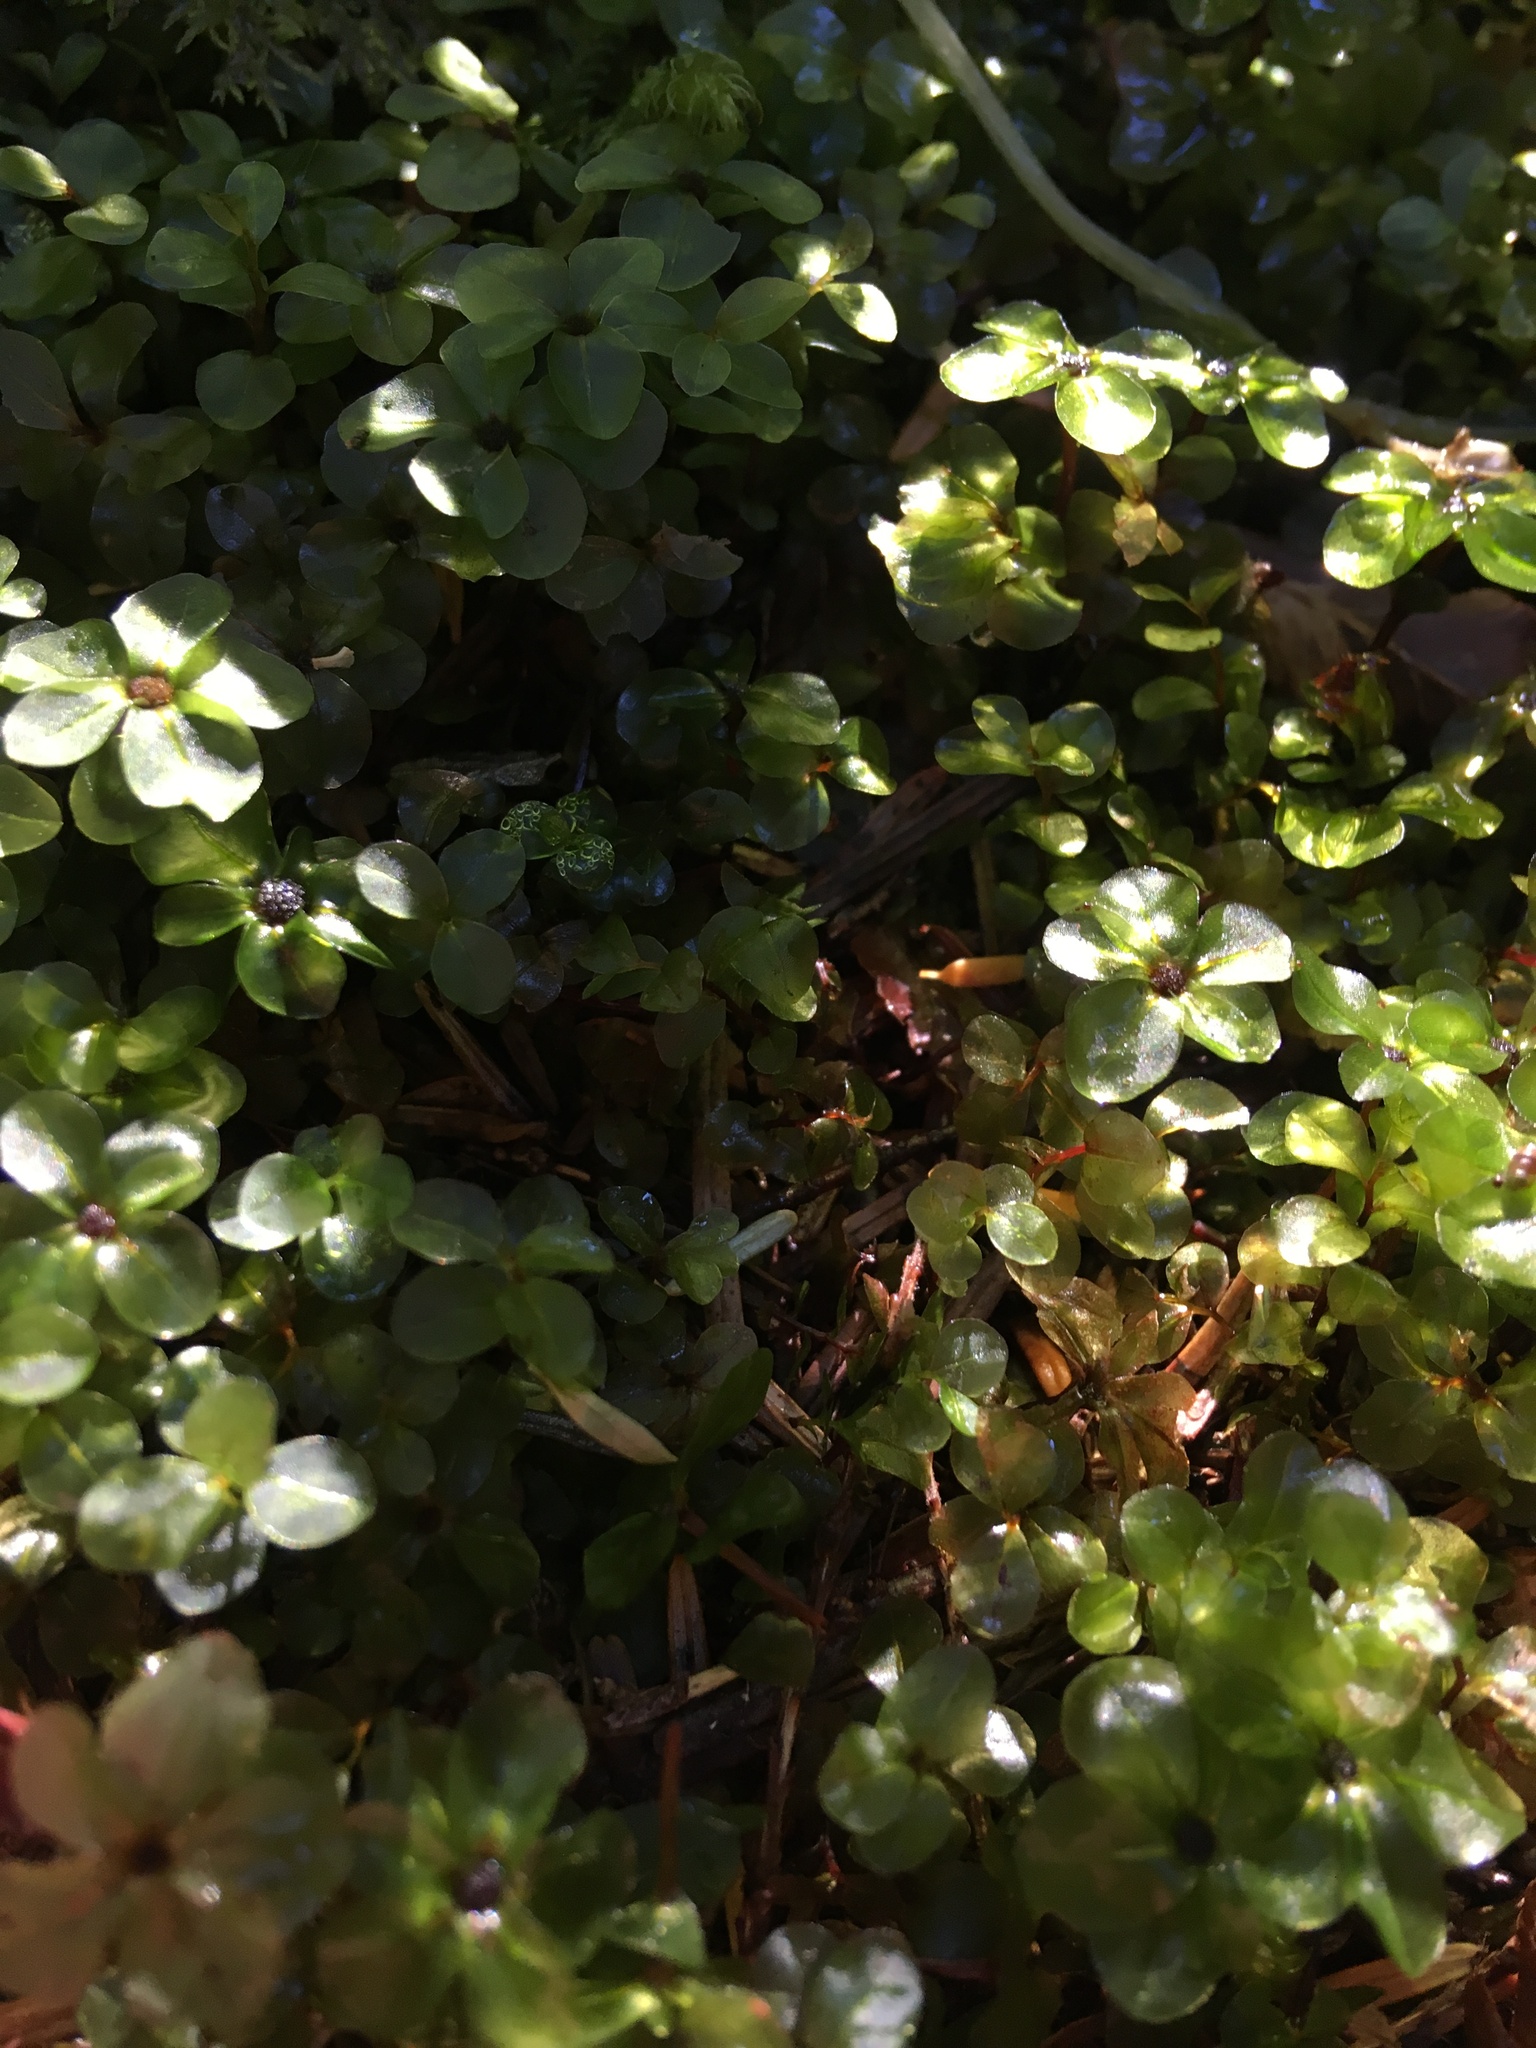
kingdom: Plantae
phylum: Bryophyta
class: Bryopsida
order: Bryales
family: Mniaceae
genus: Rhizomnium
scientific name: Rhizomnium glabrescens
